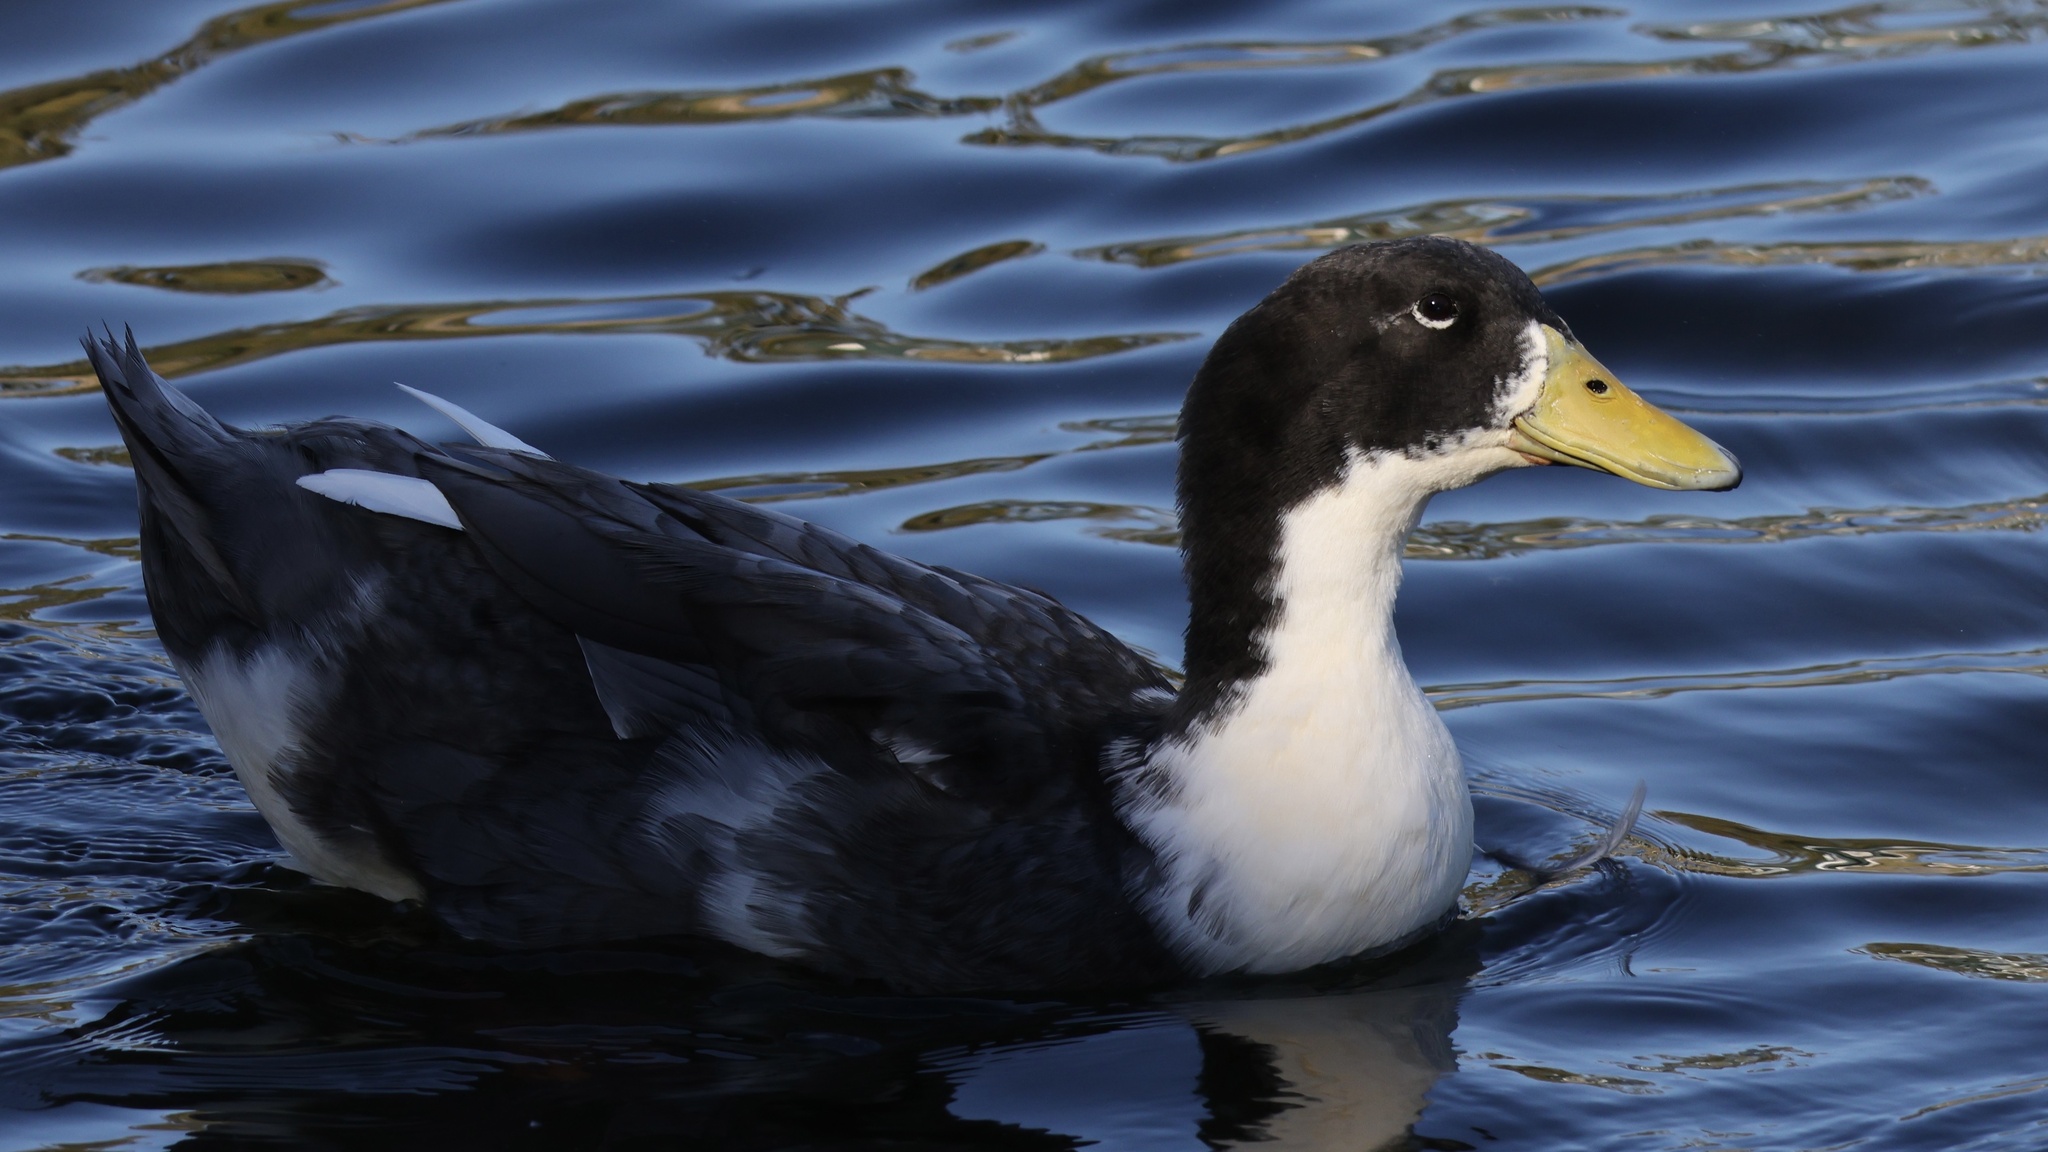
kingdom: Animalia
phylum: Chordata
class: Aves
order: Anseriformes
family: Anatidae
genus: Anas
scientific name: Anas platyrhynchos
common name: Mallard
